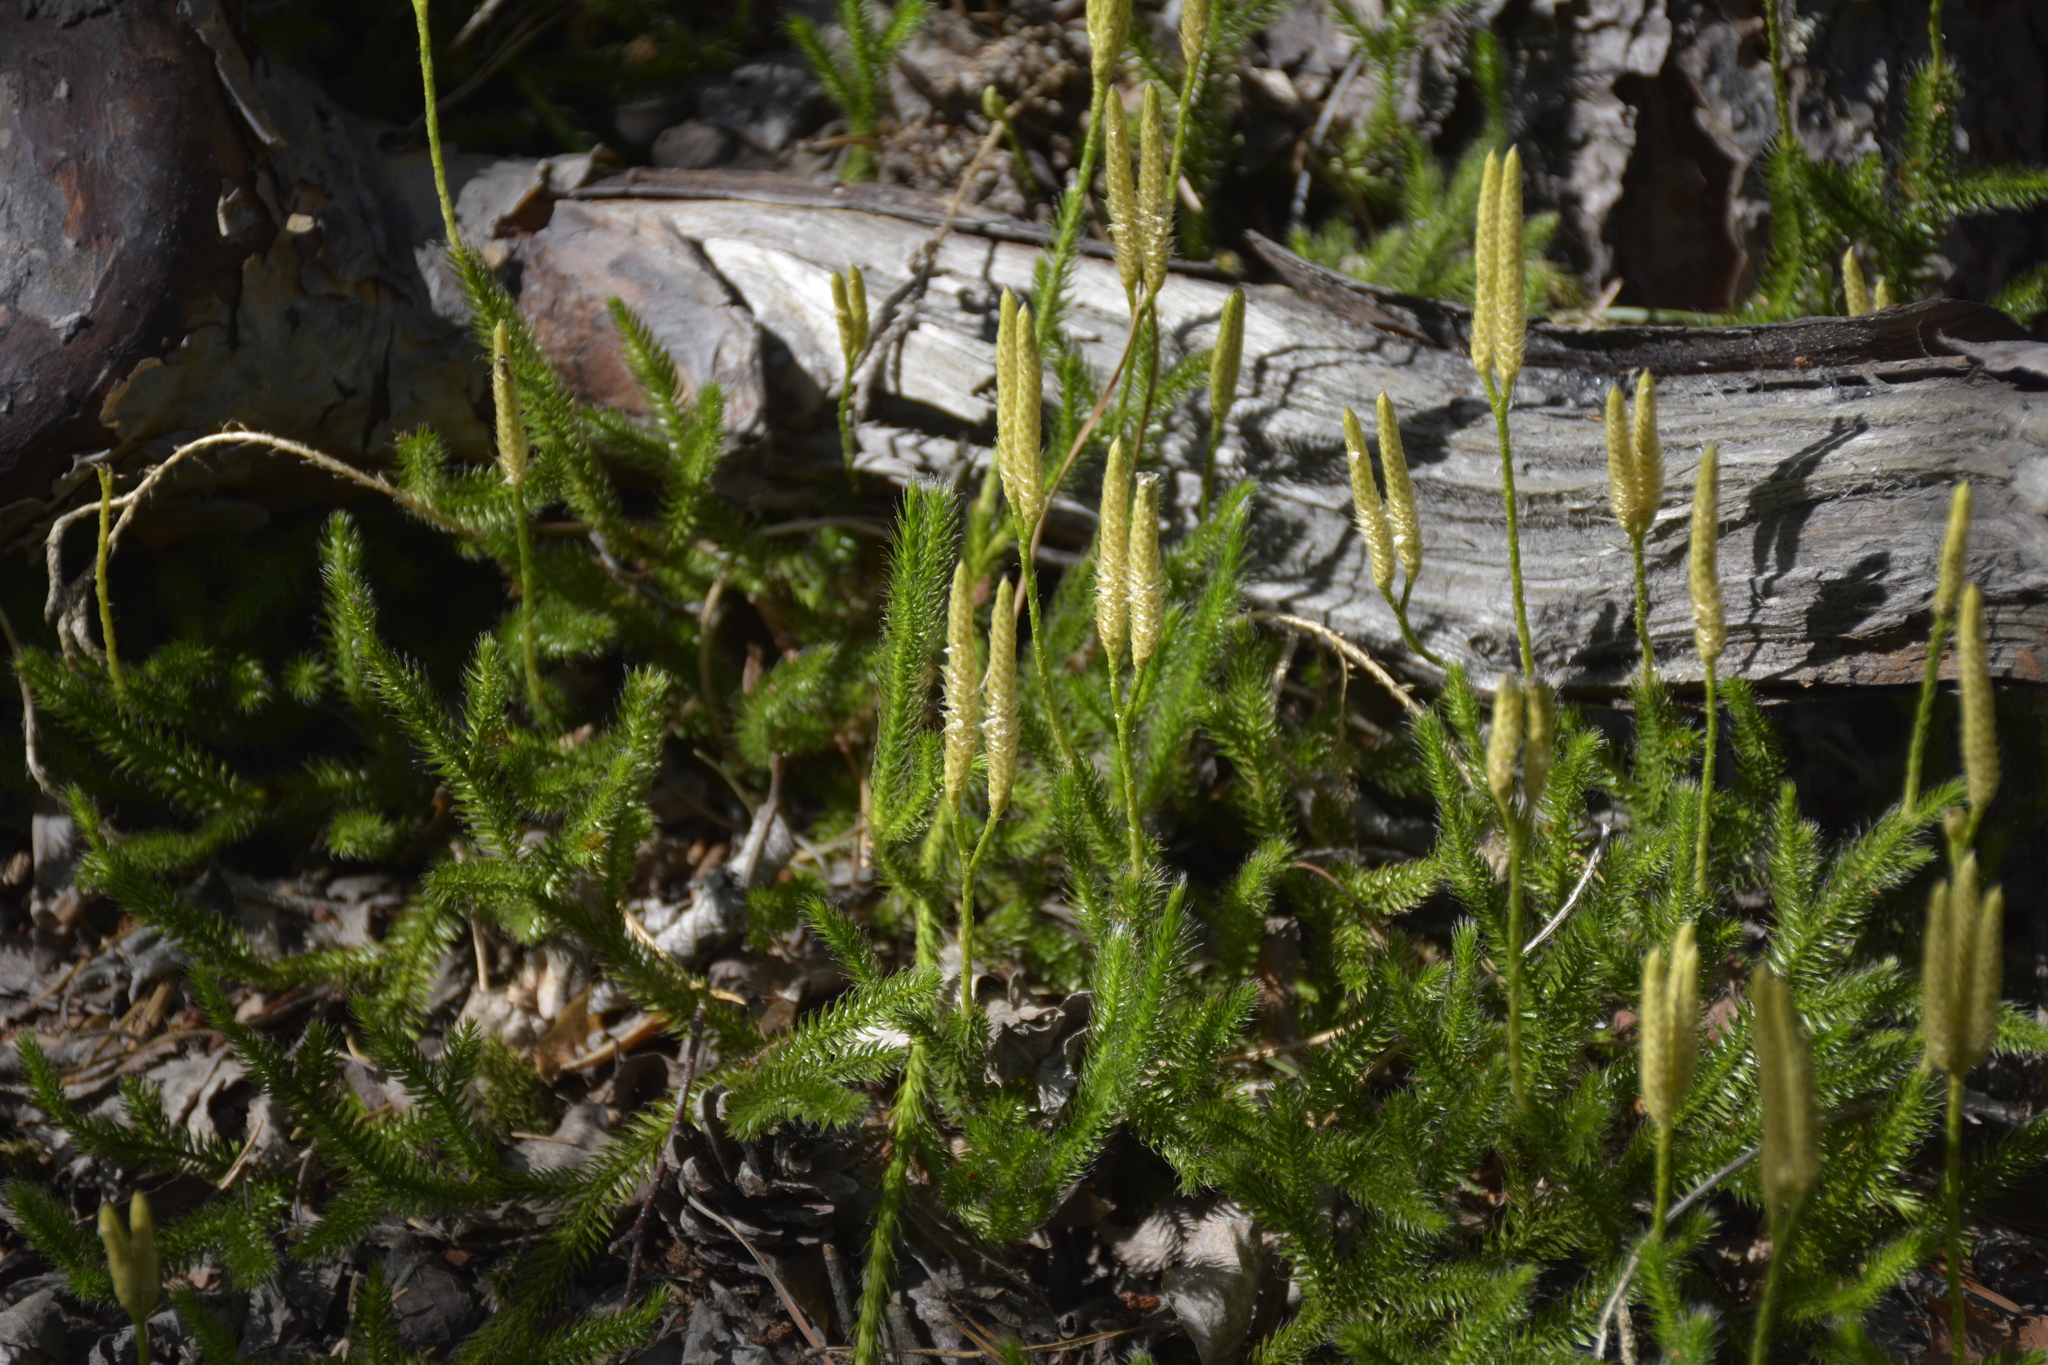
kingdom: Plantae
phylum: Tracheophyta
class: Lycopodiopsida
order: Lycopodiales
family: Lycopodiaceae
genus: Lycopodium
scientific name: Lycopodium clavatum
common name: Stag's-horn clubmoss
